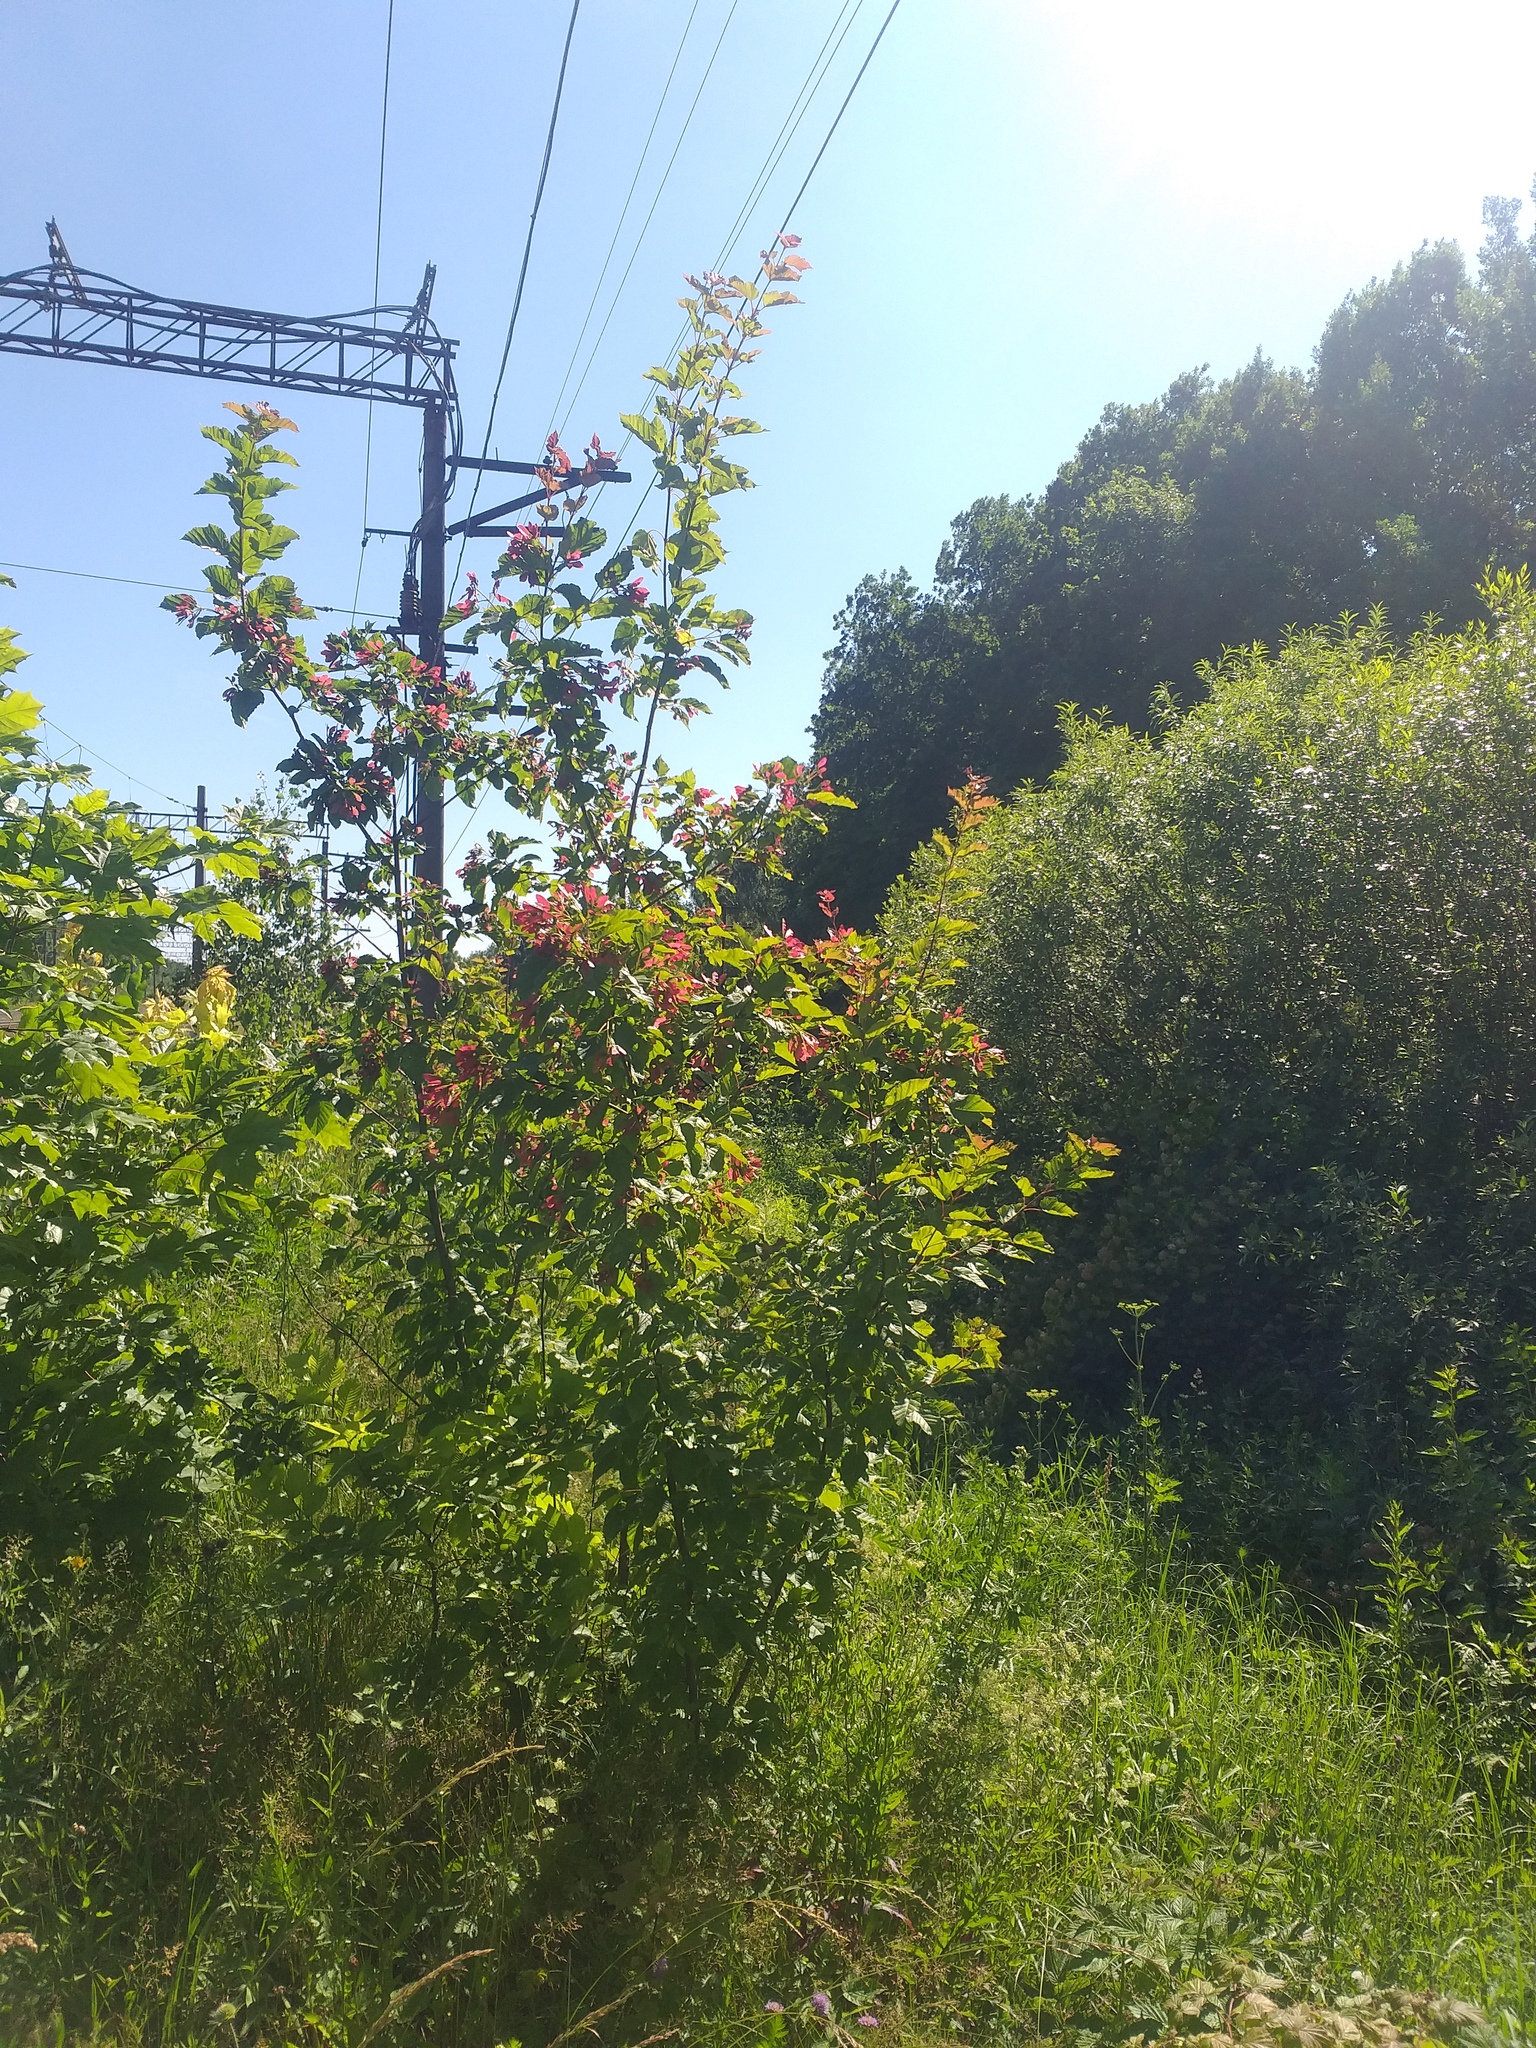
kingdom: Plantae
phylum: Tracheophyta
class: Magnoliopsida
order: Sapindales
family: Sapindaceae
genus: Acer
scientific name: Acer tataricum
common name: Tartar maple
